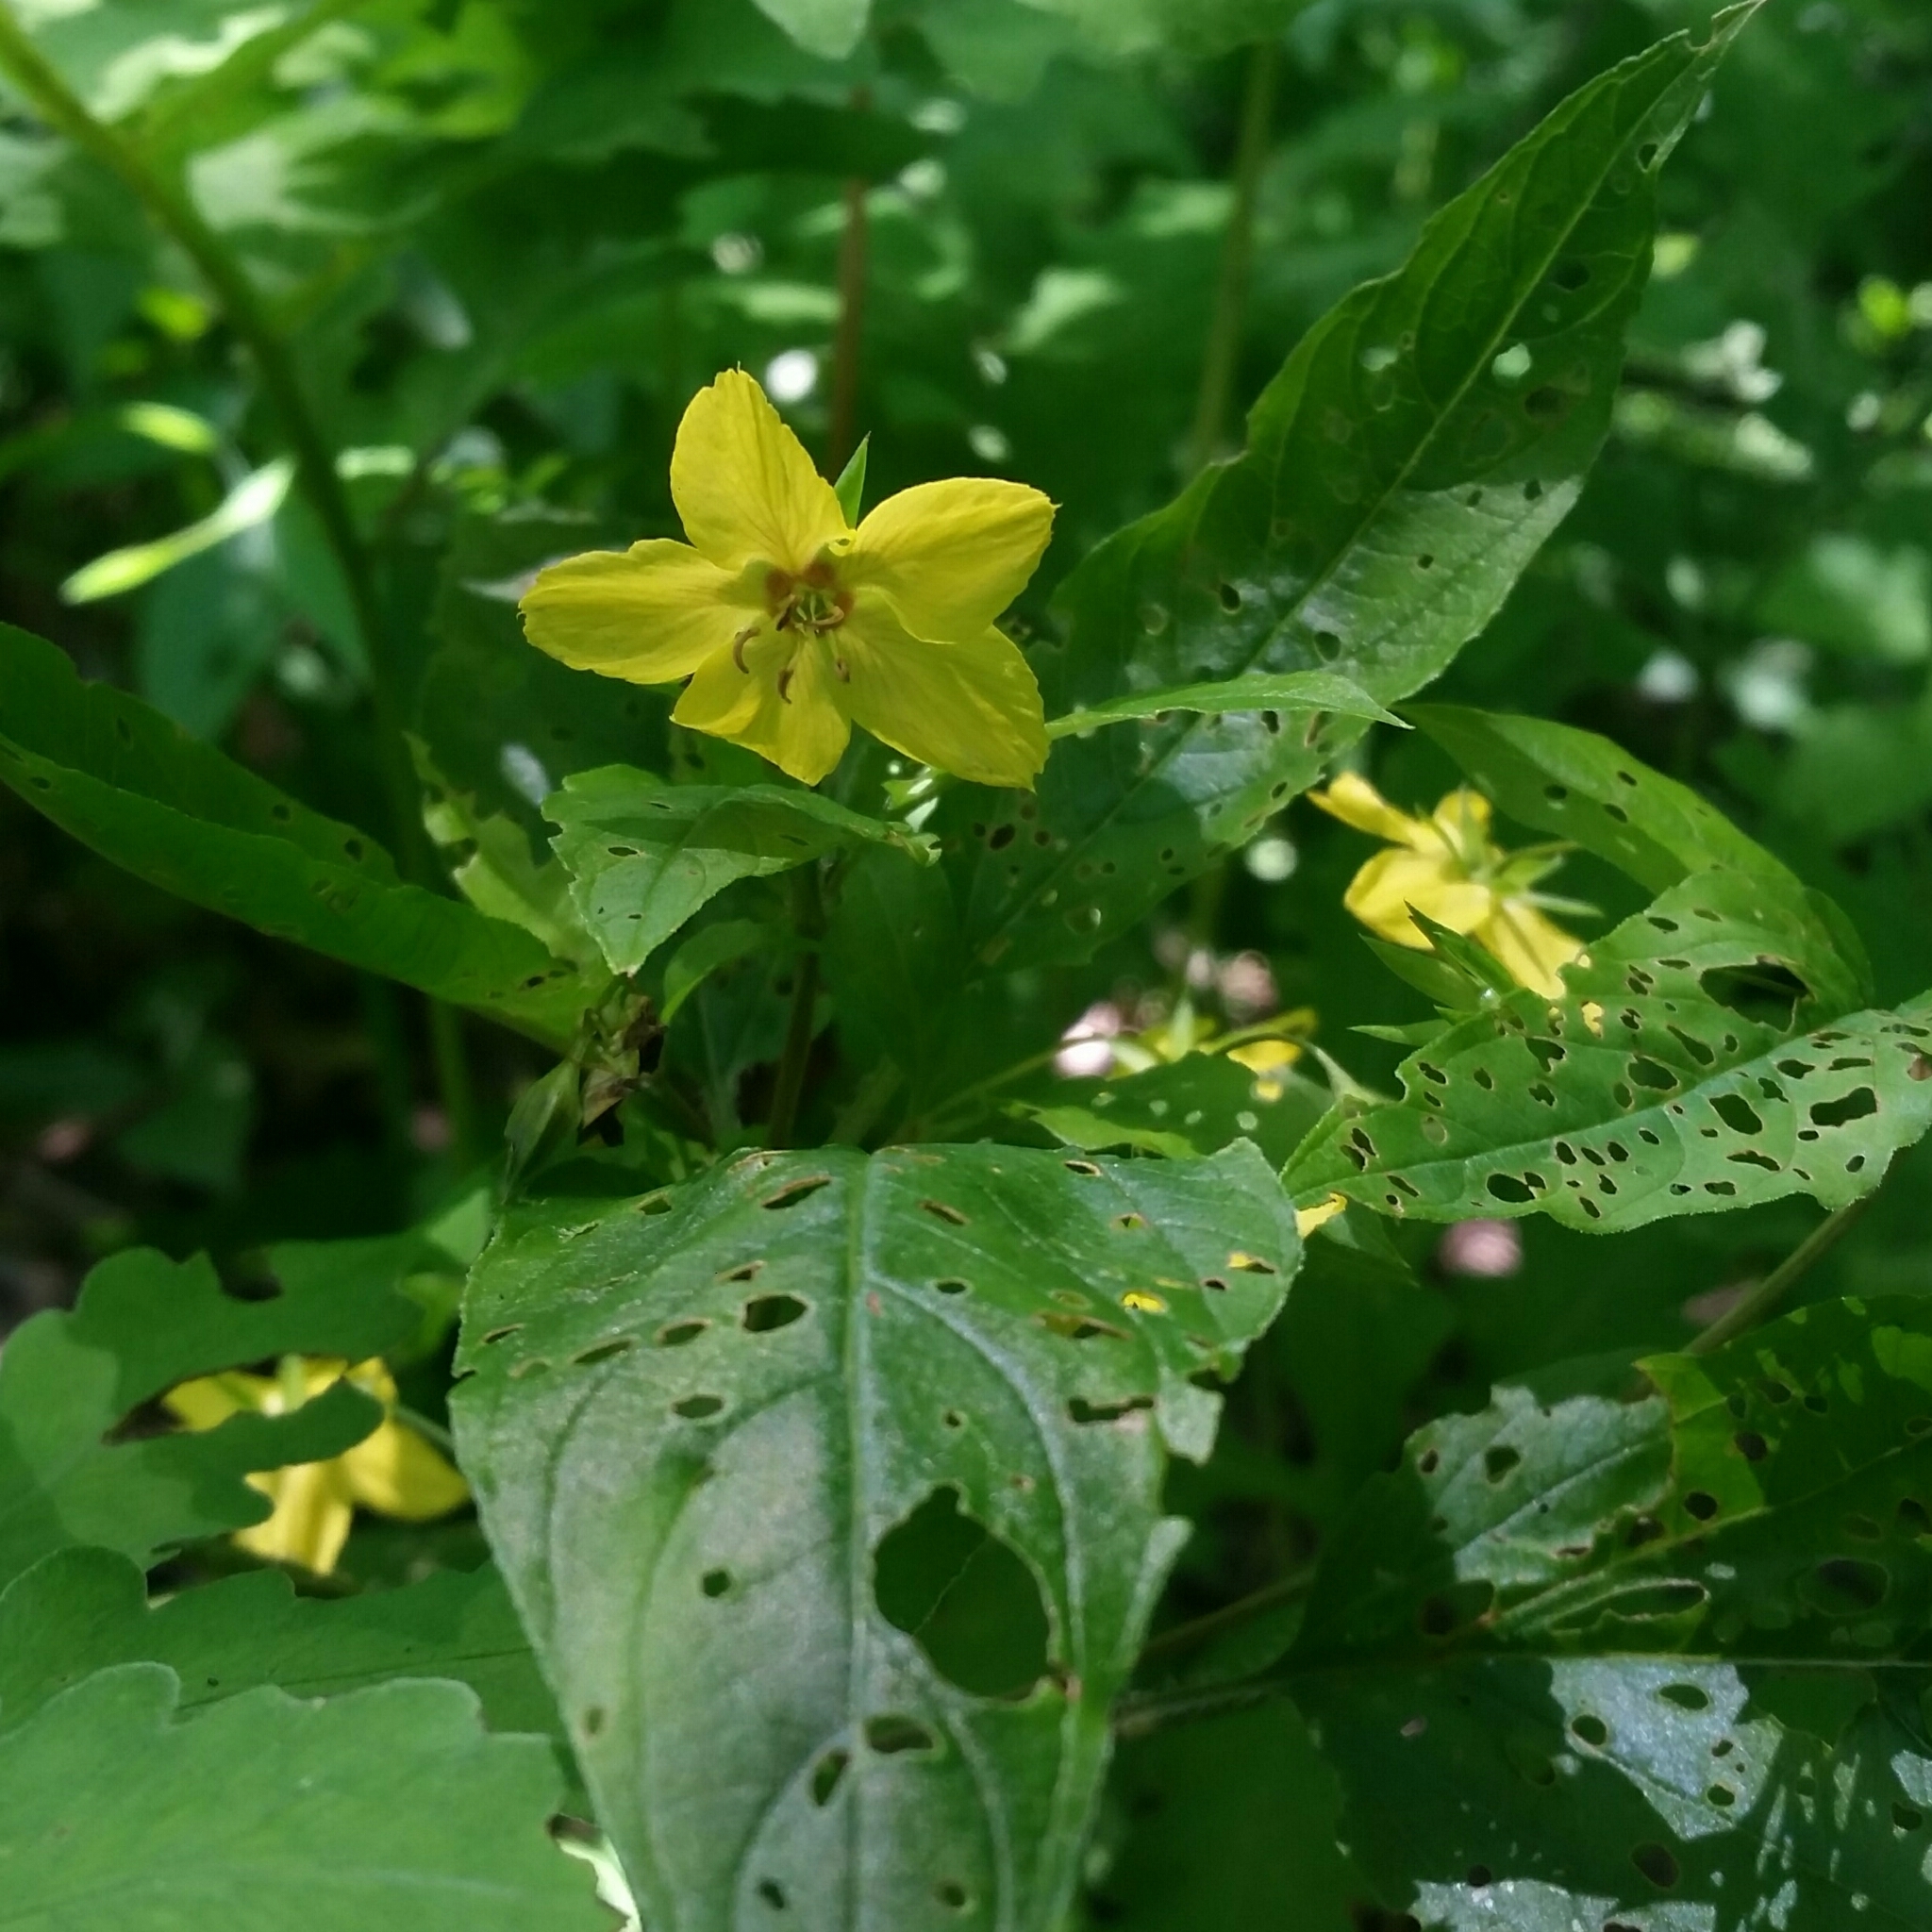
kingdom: Plantae
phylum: Tracheophyta
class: Magnoliopsida
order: Ericales
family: Primulaceae
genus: Lysimachia
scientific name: Lysimachia ciliata
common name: Fringed loosestrife
